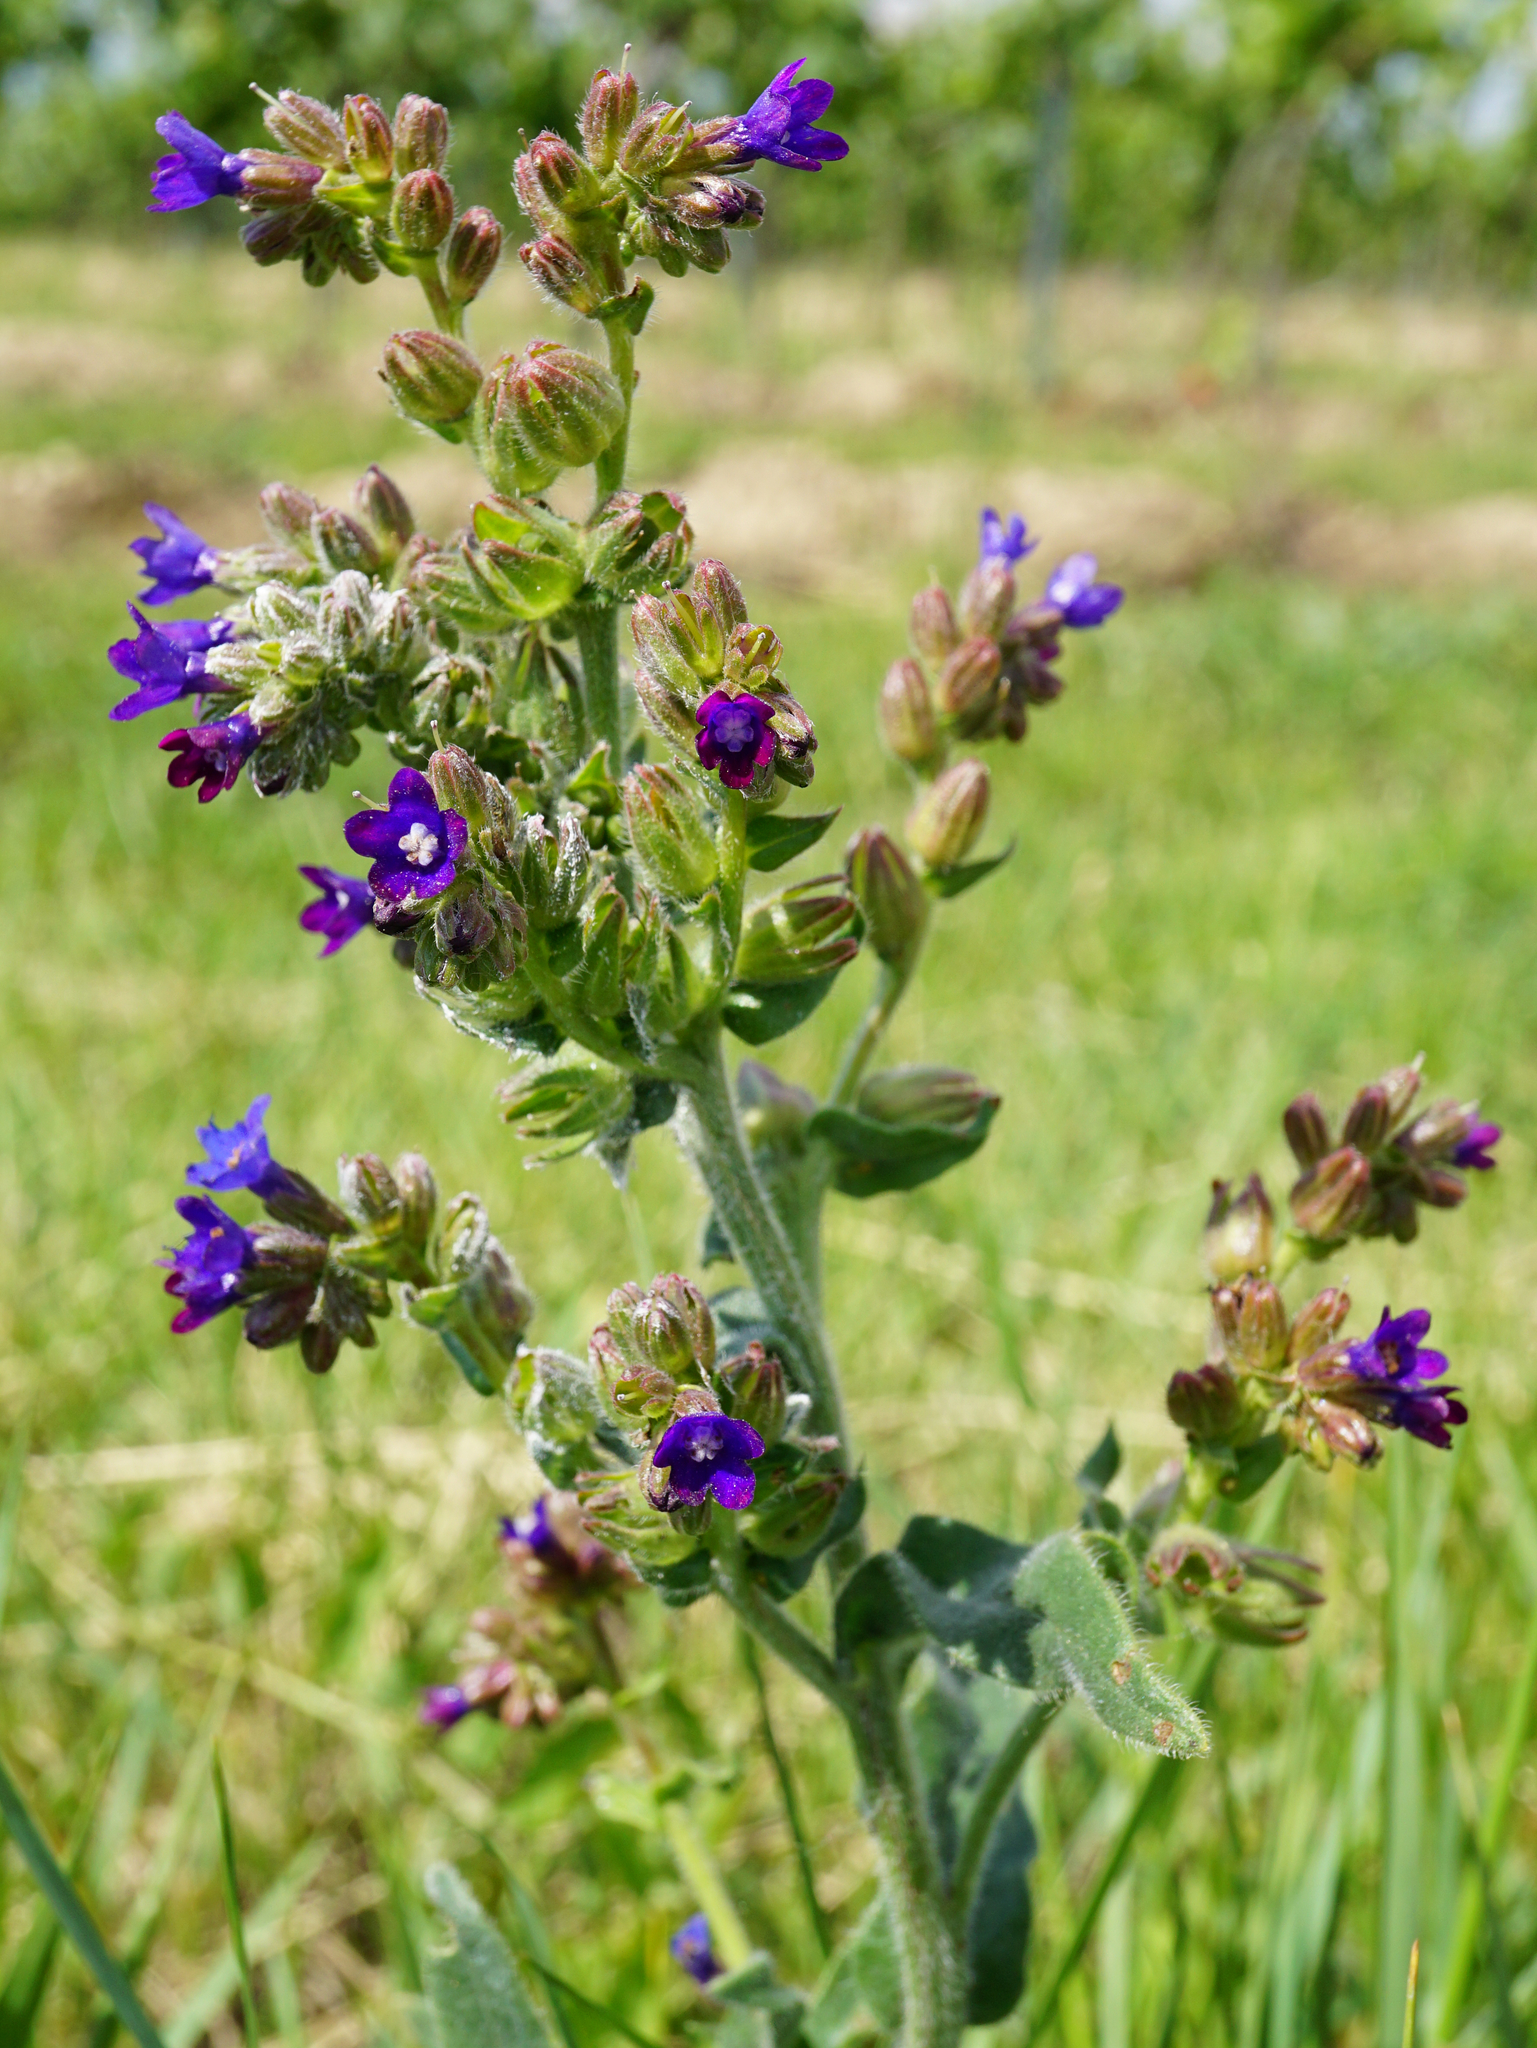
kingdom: Plantae
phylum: Tracheophyta
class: Magnoliopsida
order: Boraginales
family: Boraginaceae
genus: Anchusa
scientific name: Anchusa officinalis
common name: Alkanet
